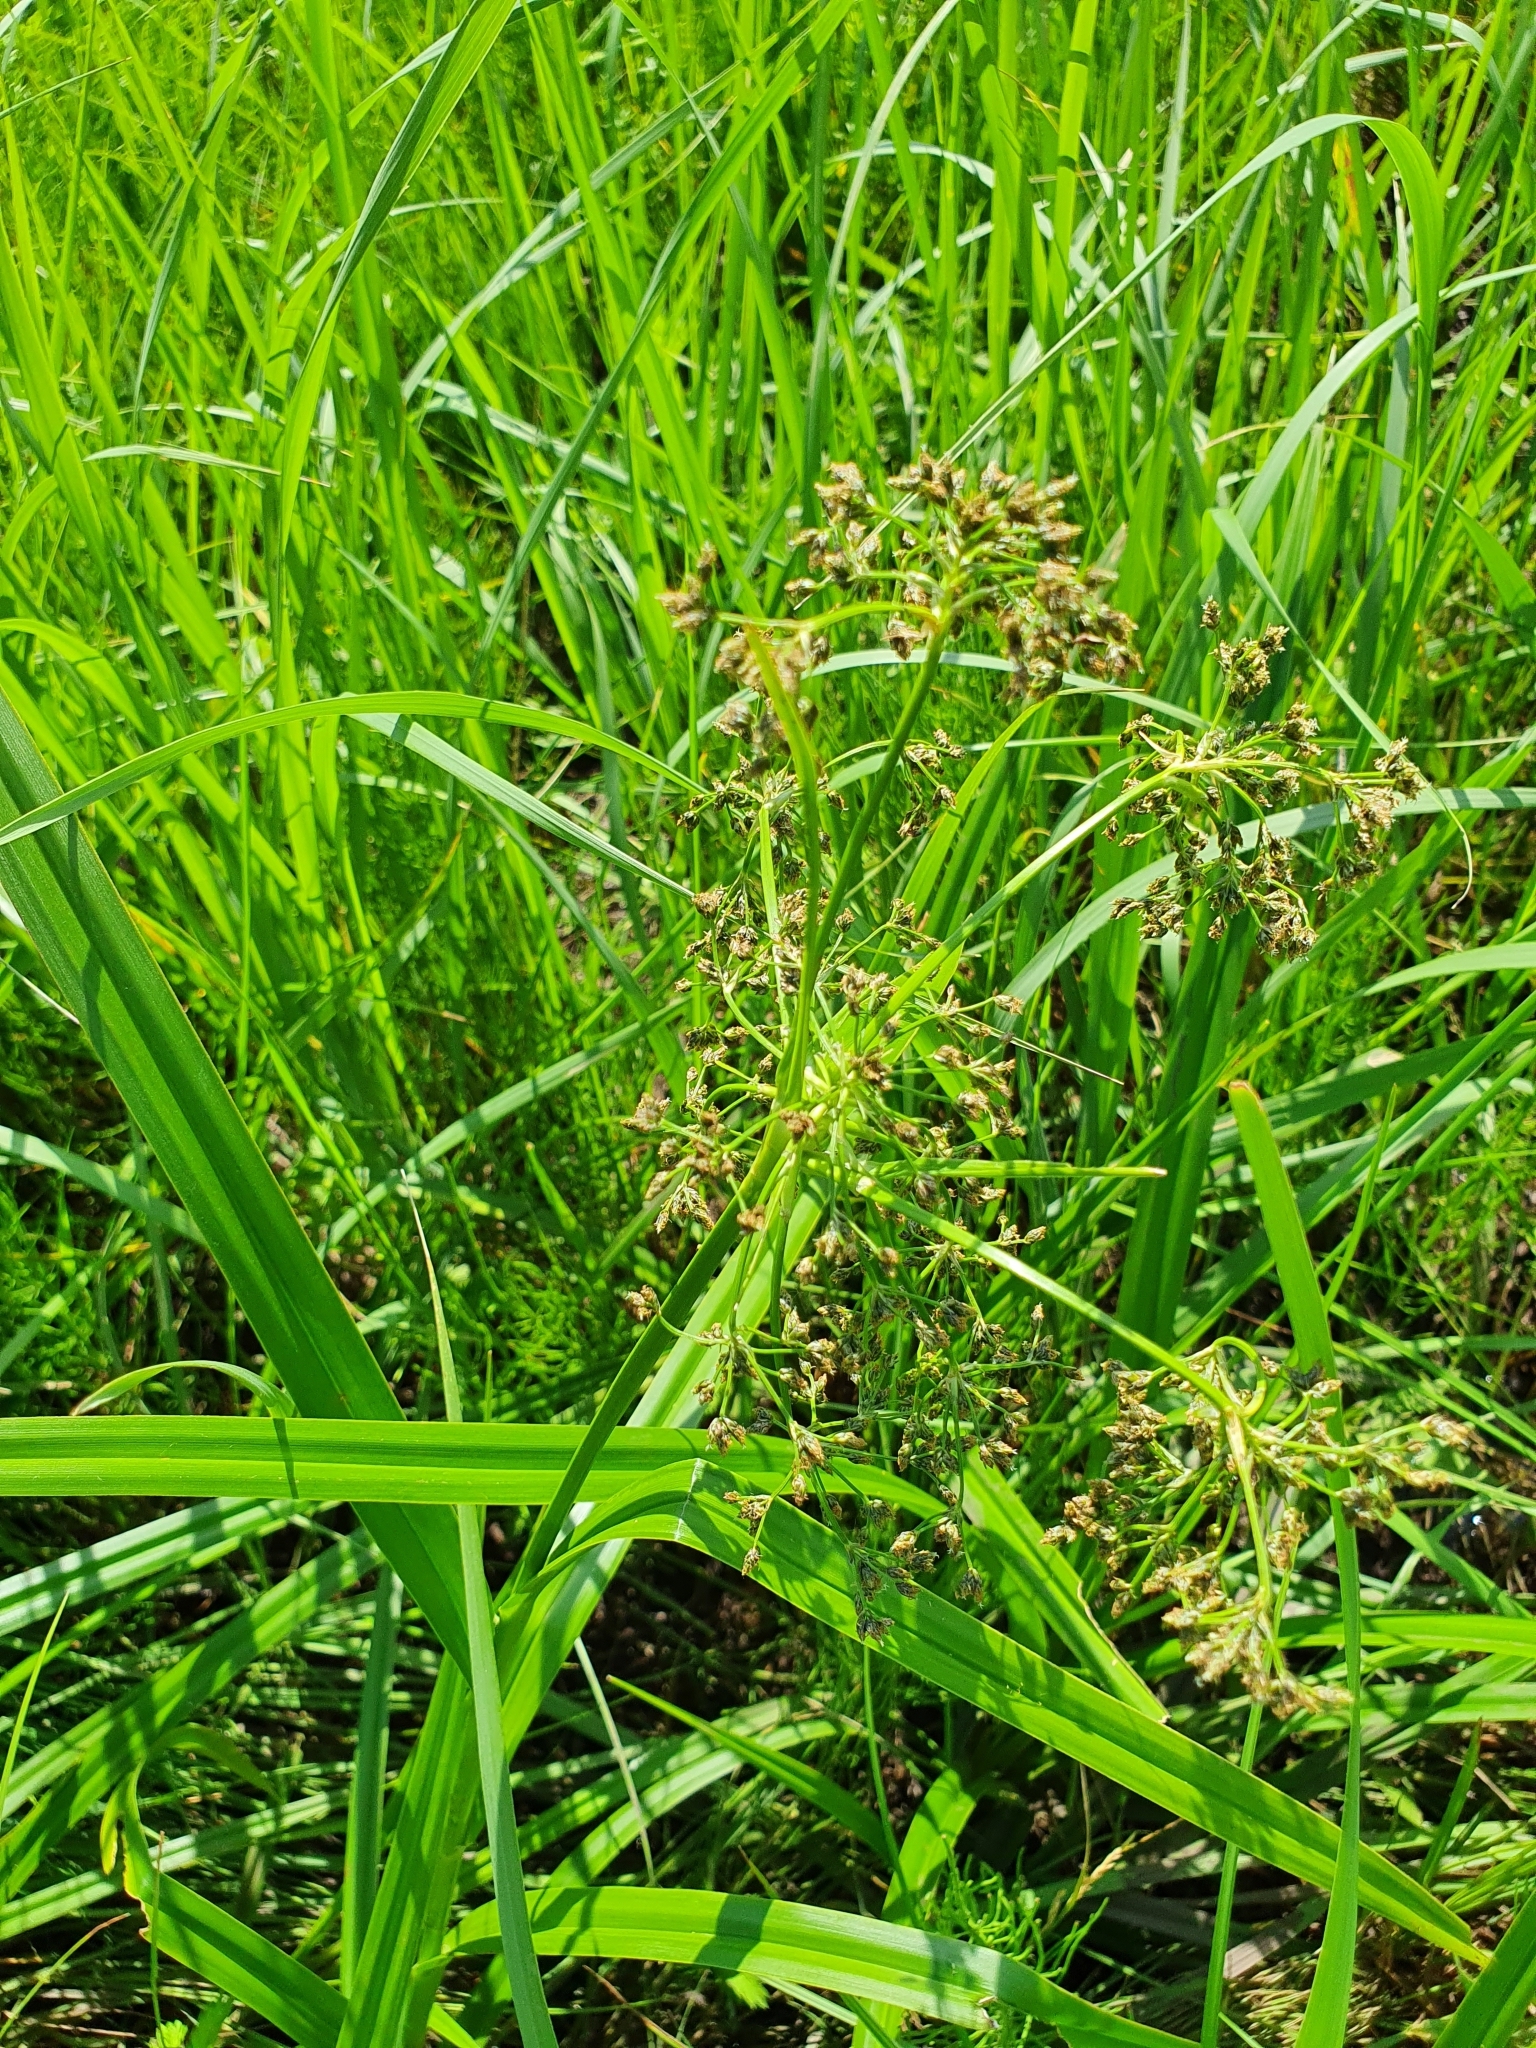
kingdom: Plantae
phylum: Tracheophyta
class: Liliopsida
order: Poales
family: Cyperaceae
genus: Scirpus
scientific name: Scirpus sylvaticus
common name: Wood club-rush
